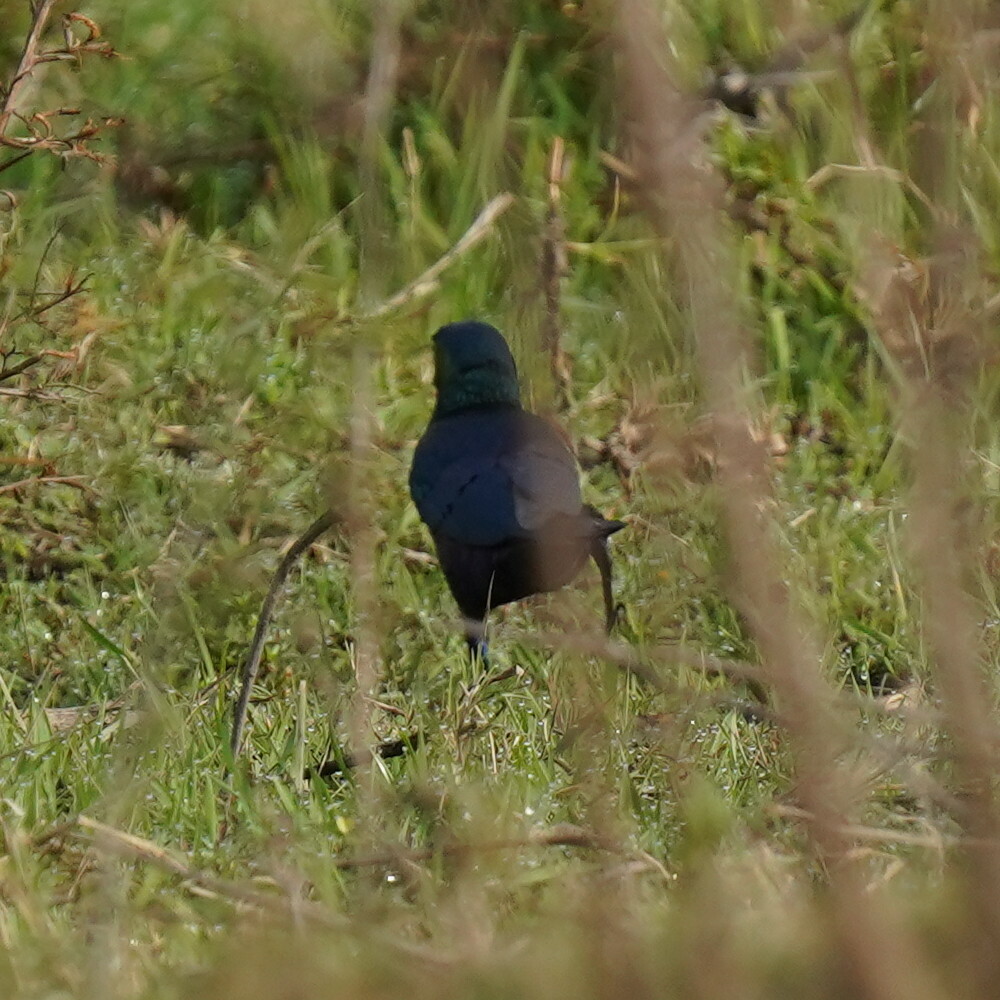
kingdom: Animalia
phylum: Chordata
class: Aves
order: Passeriformes
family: Sturnidae
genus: Lamprotornis
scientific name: Lamprotornis chalybaeus
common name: Greater blue-eared starling
